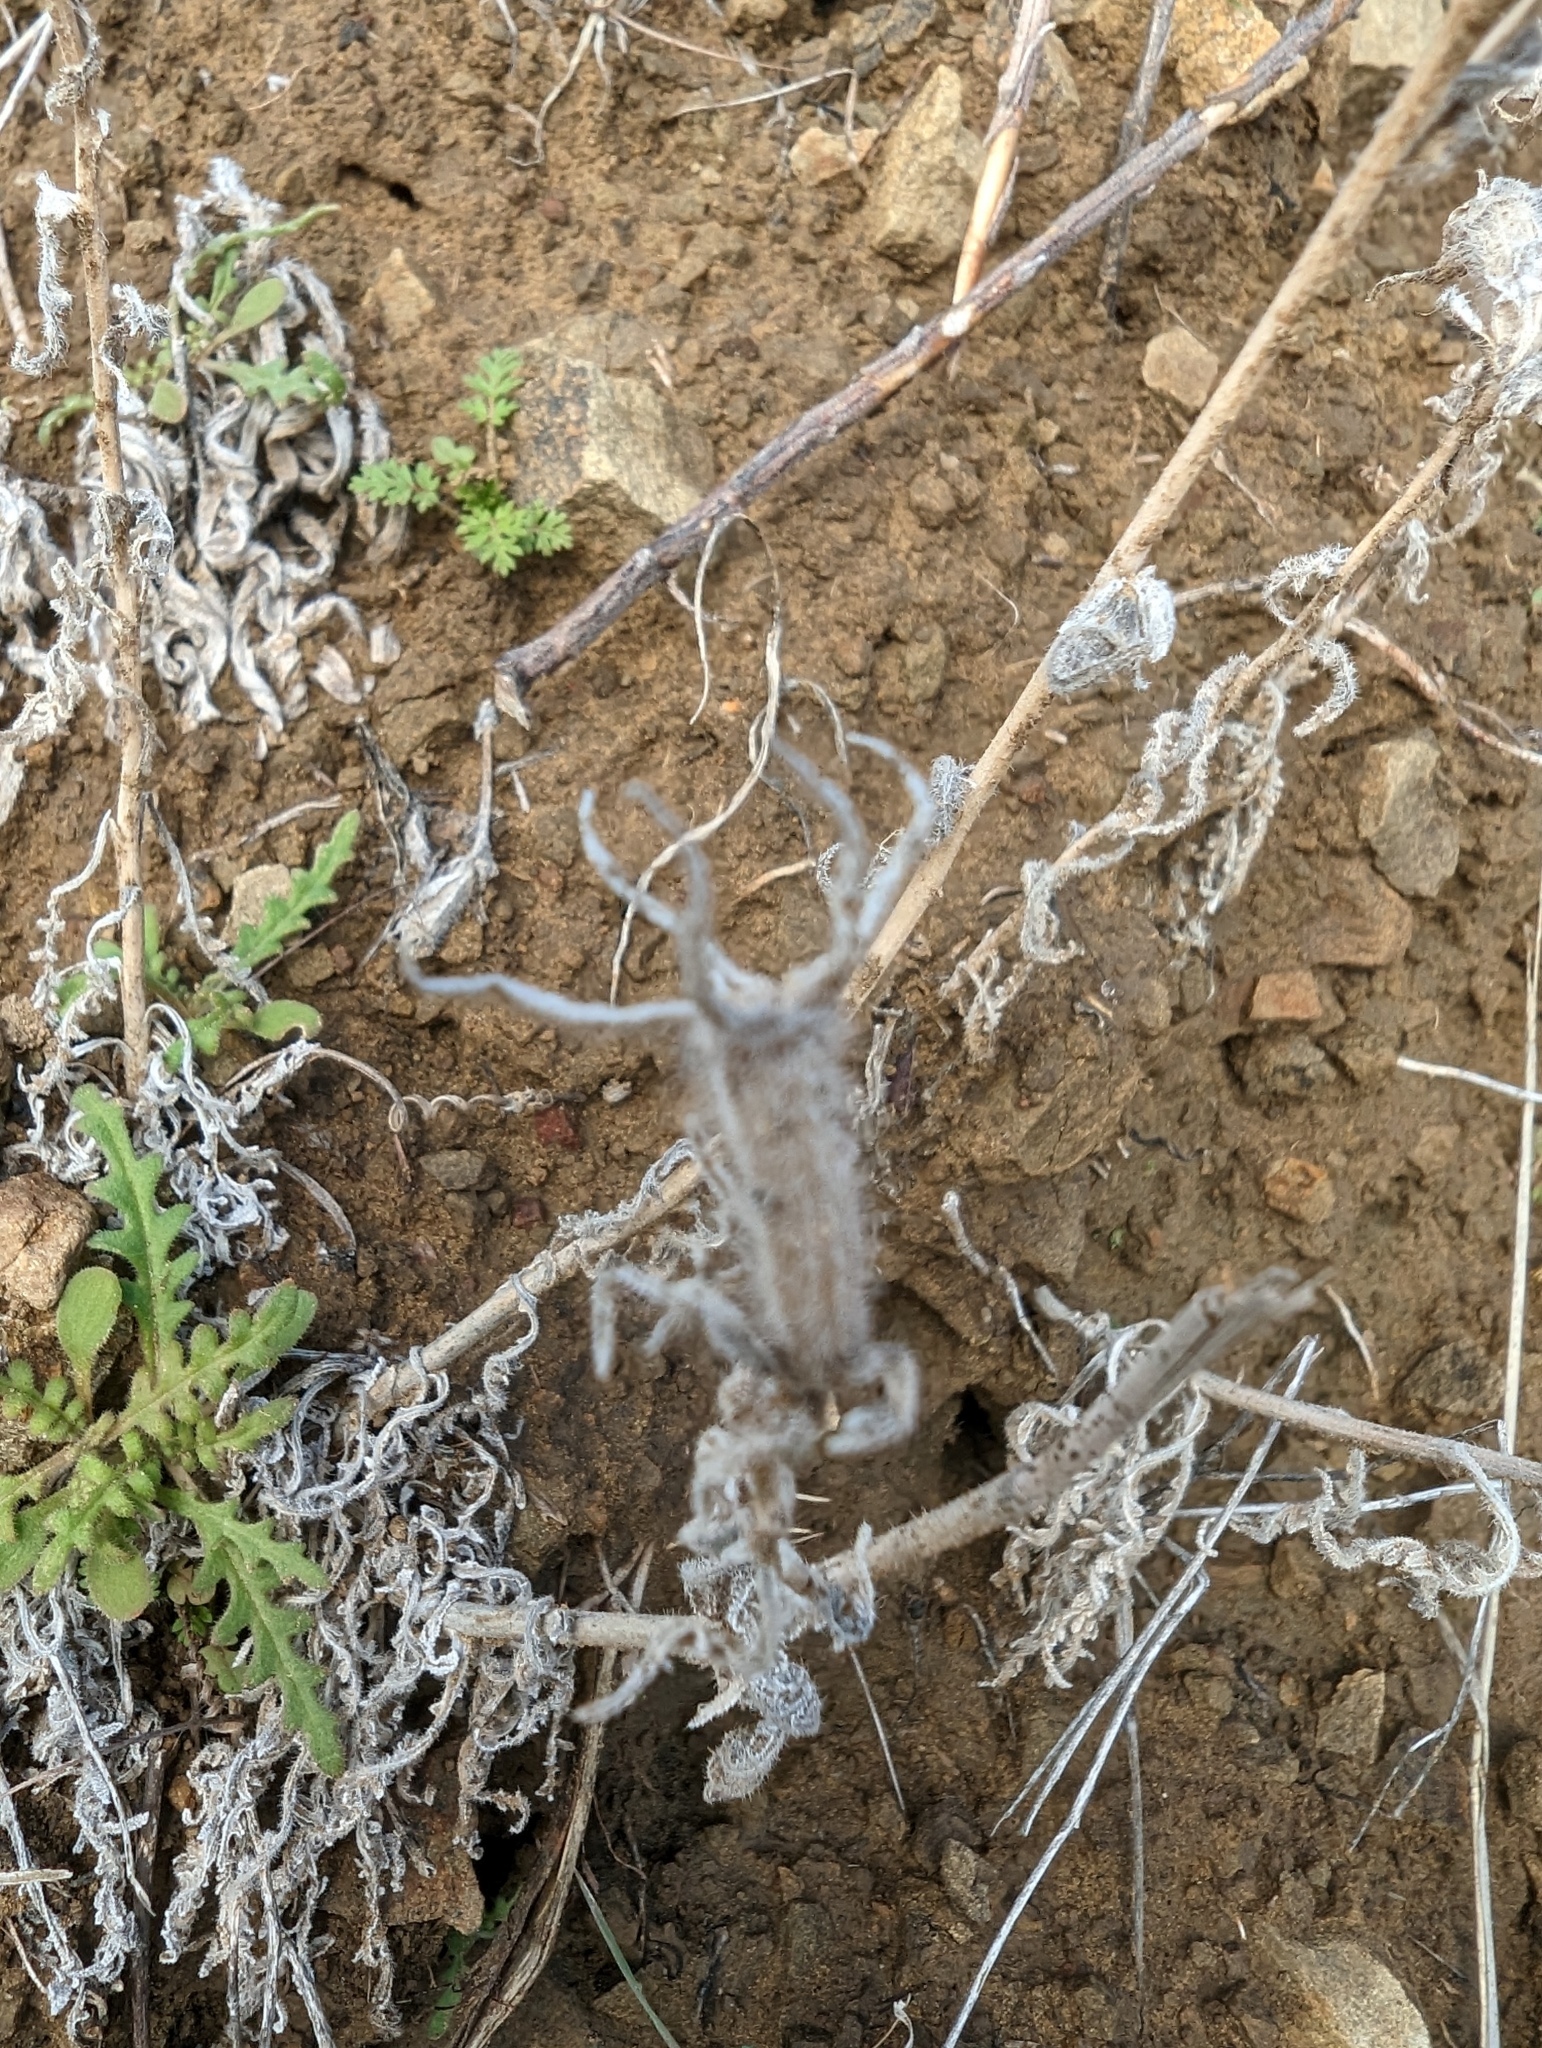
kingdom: Plantae
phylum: Tracheophyta
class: Magnoliopsida
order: Cornales
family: Loasaceae
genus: Mentzelia
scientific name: Mentzelia lindleyi
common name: Golden bartonia
